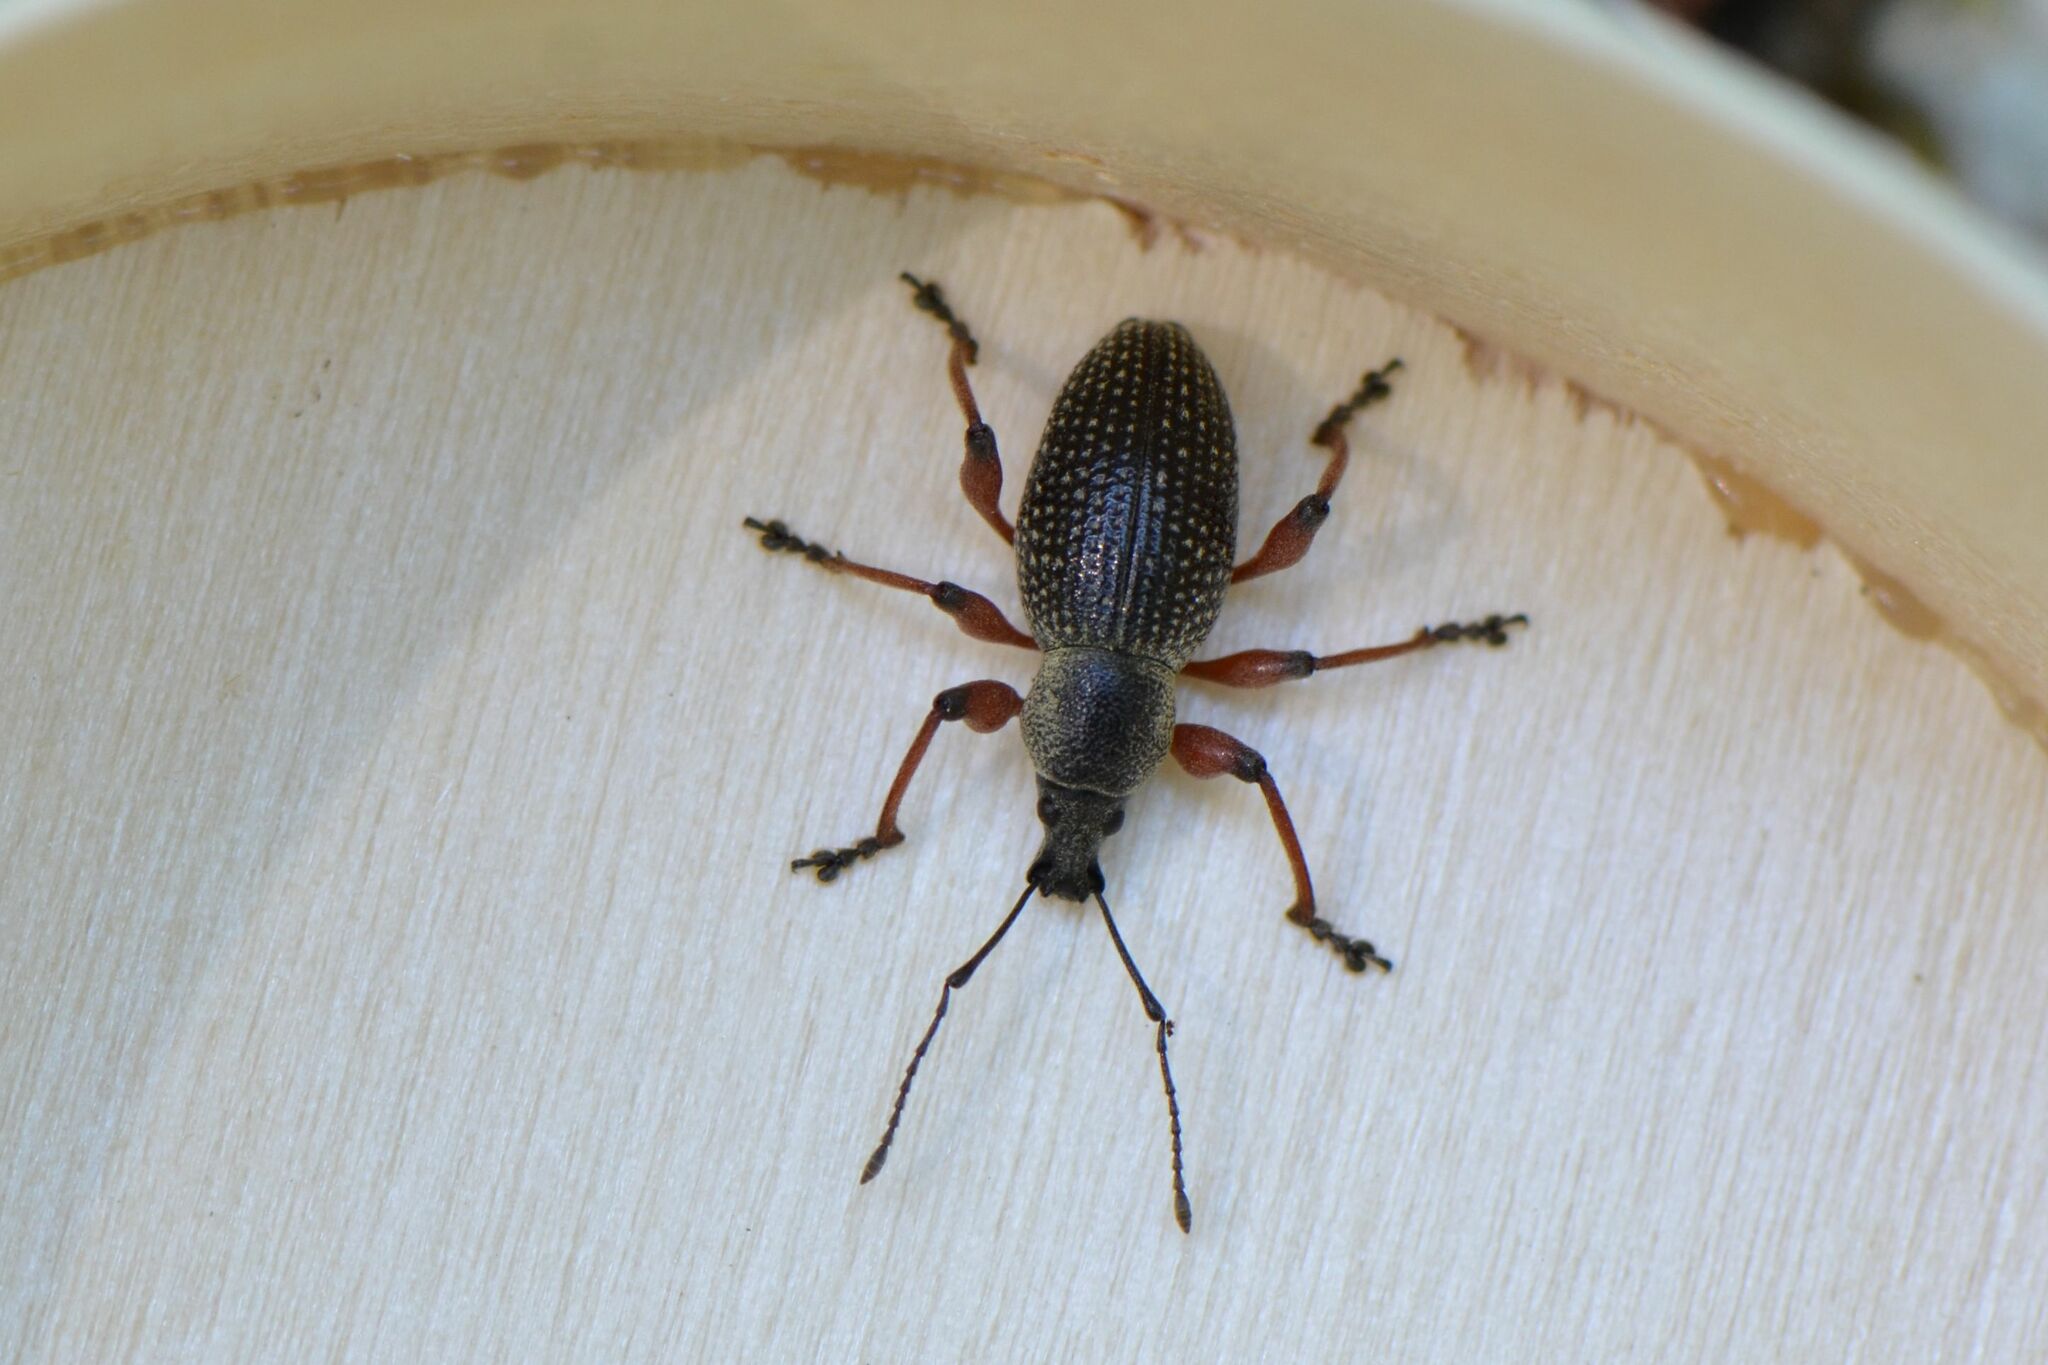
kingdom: Animalia
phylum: Arthropoda
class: Insecta
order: Coleoptera
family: Curculionidae
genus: Otiorhynchus
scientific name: Otiorhynchus coecus
